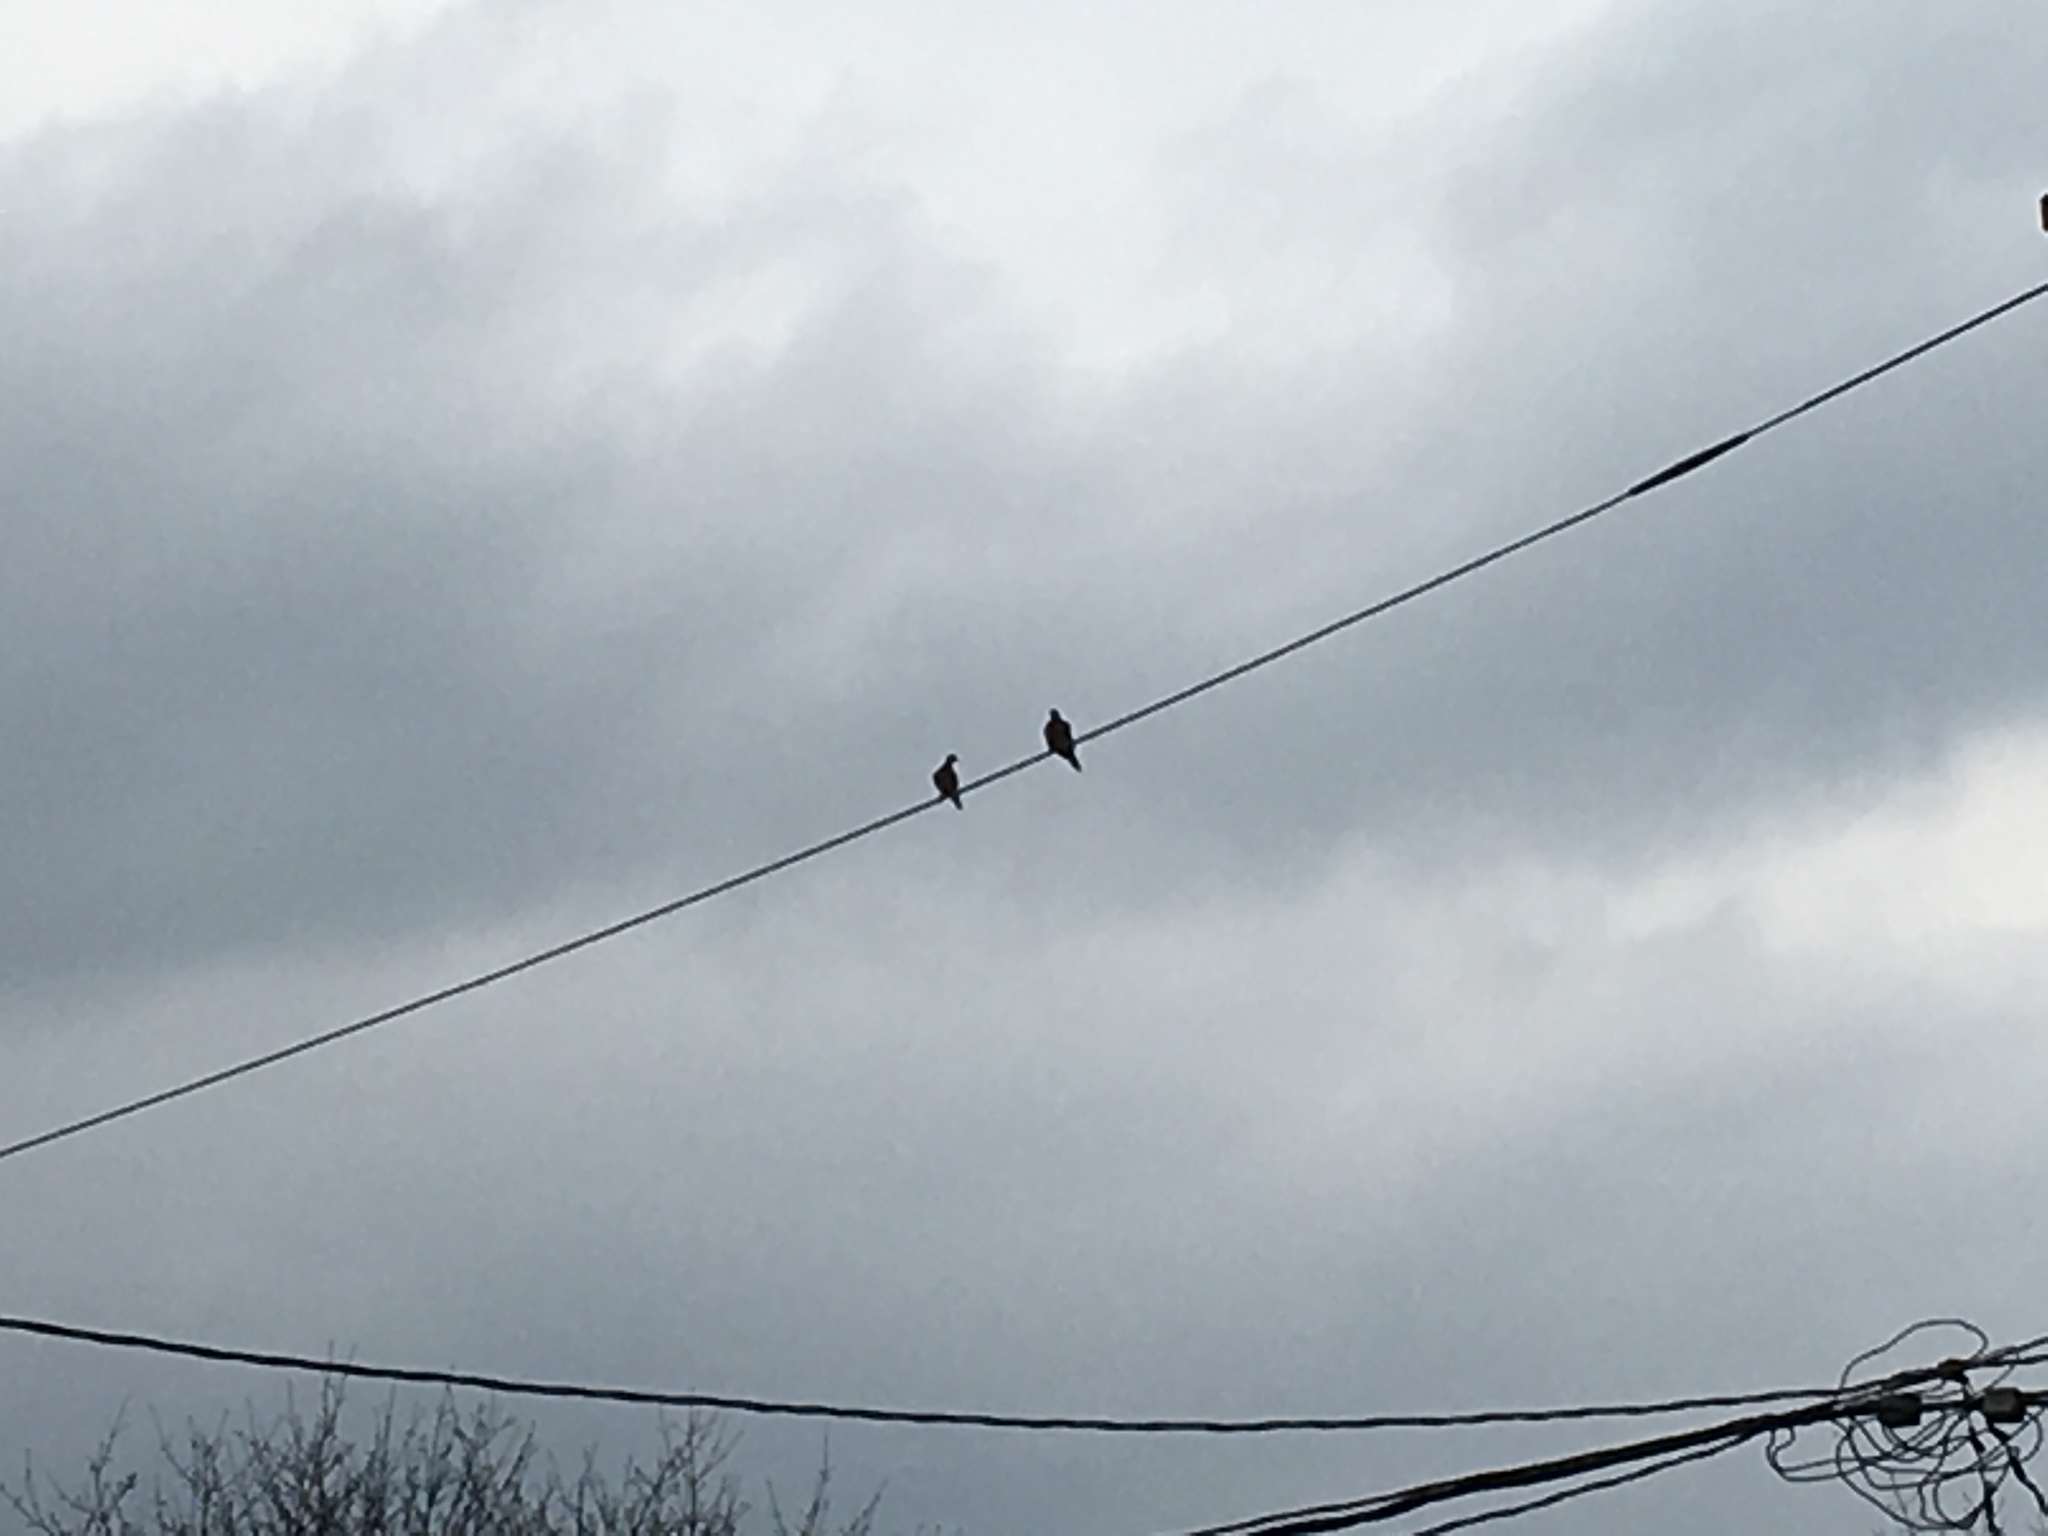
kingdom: Animalia
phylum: Chordata
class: Aves
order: Columbiformes
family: Columbidae
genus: Zenaida
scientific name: Zenaida macroura
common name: Mourning dove
